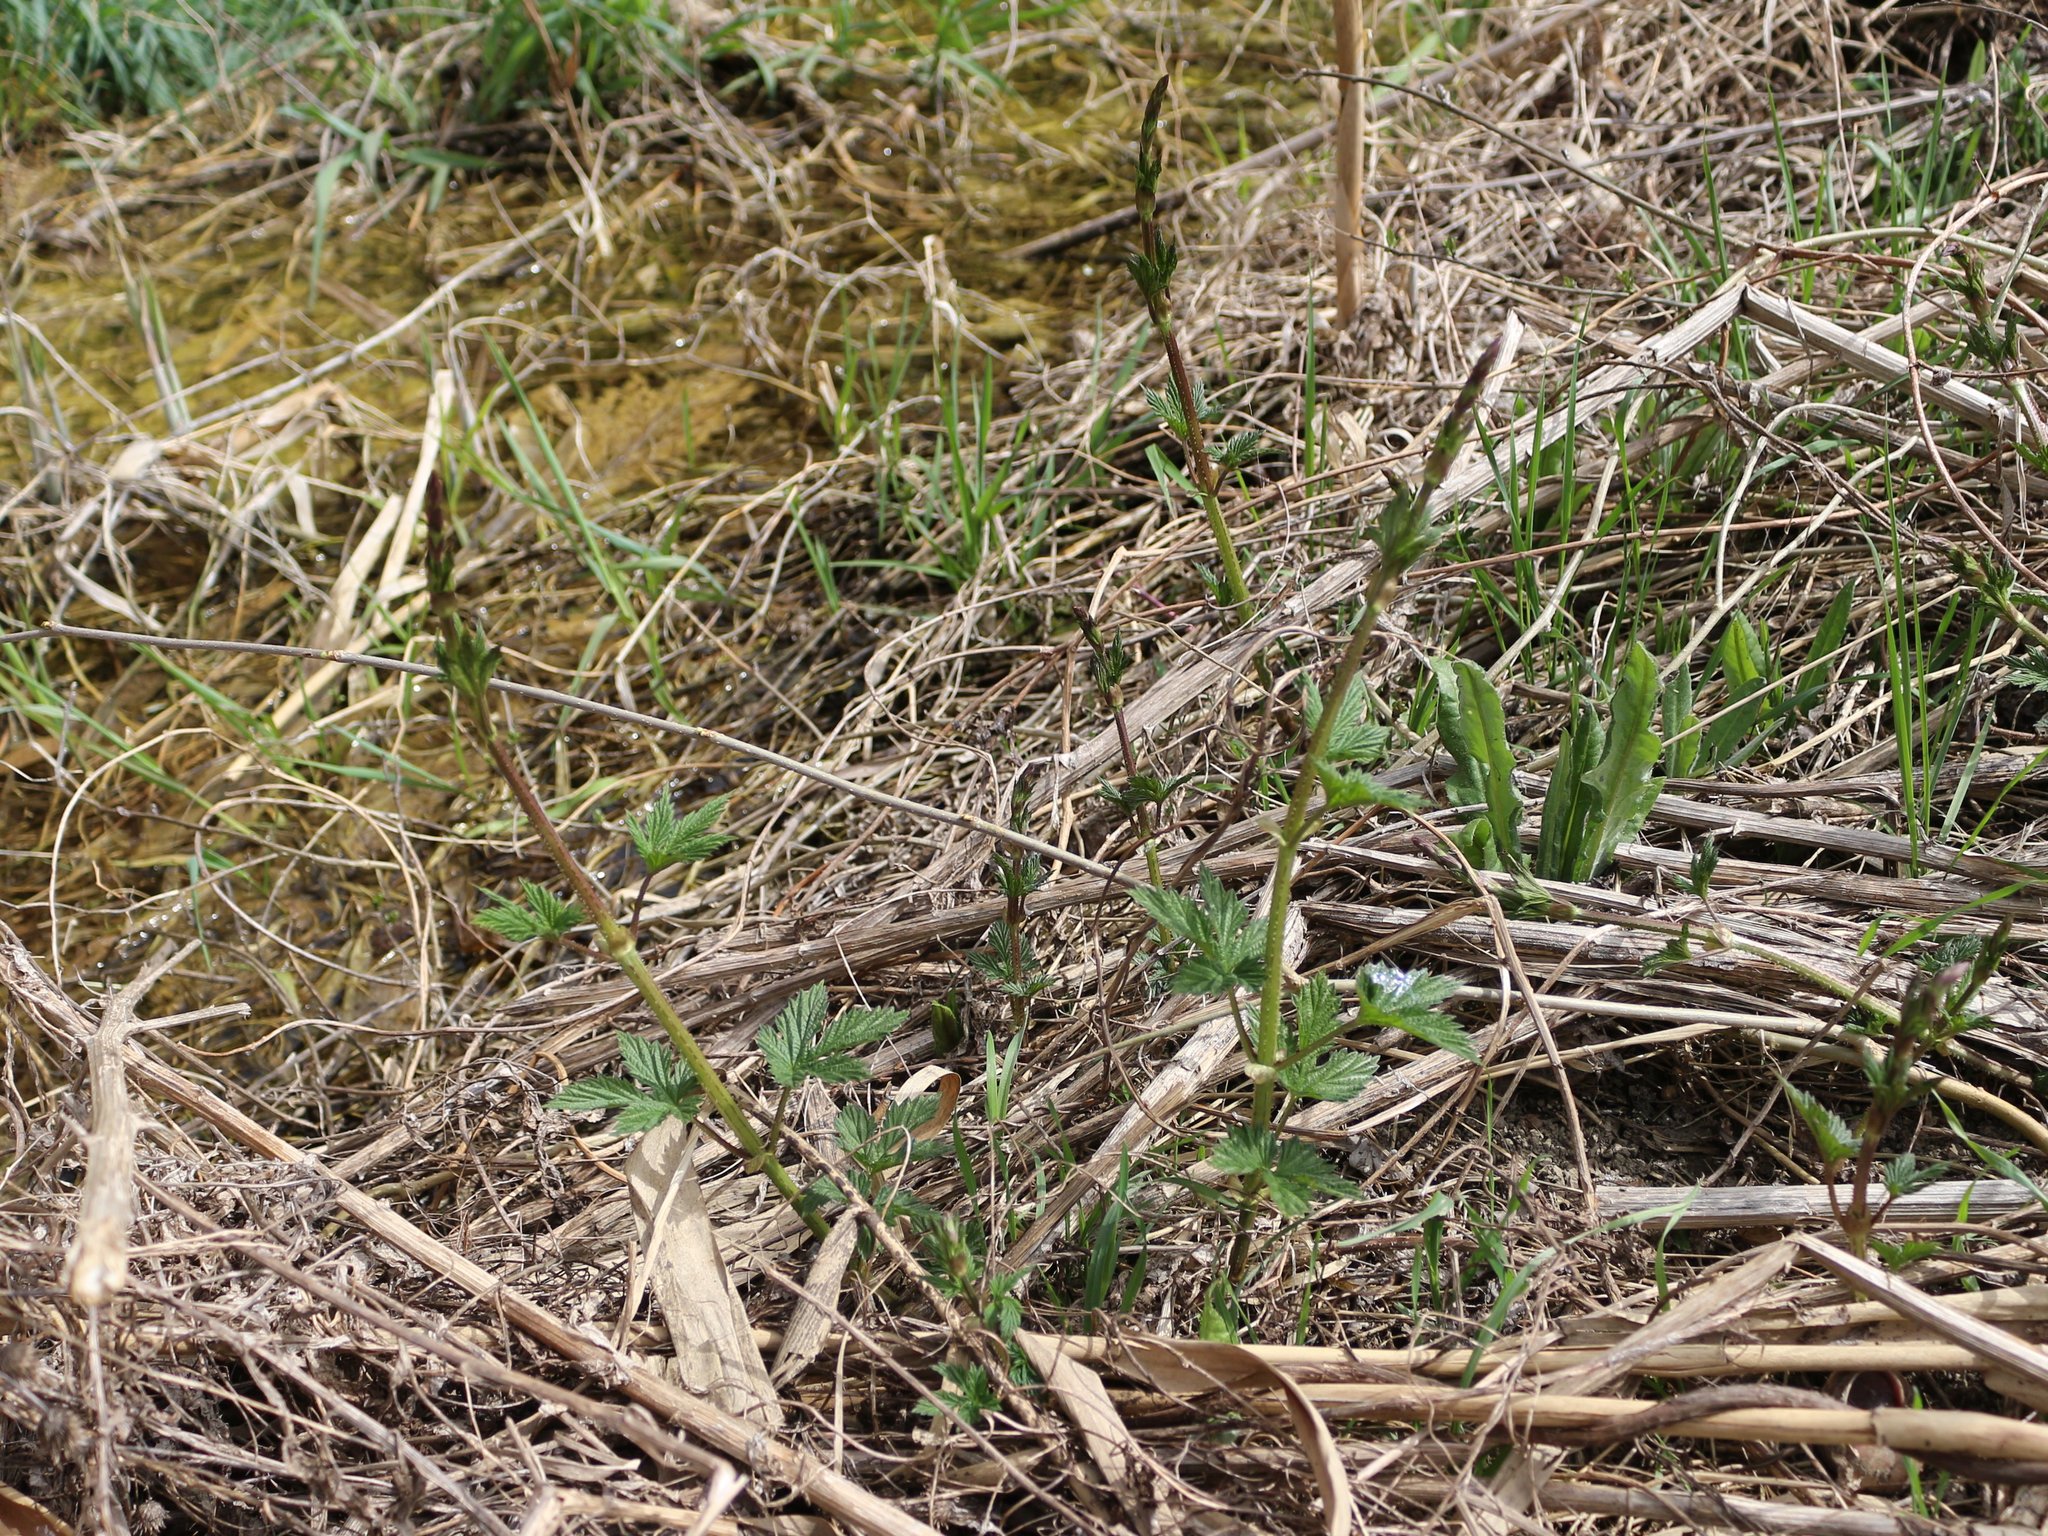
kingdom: Plantae
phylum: Tracheophyta
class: Magnoliopsida
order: Rosales
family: Cannabaceae
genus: Humulus
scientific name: Humulus lupulus
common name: Hop
